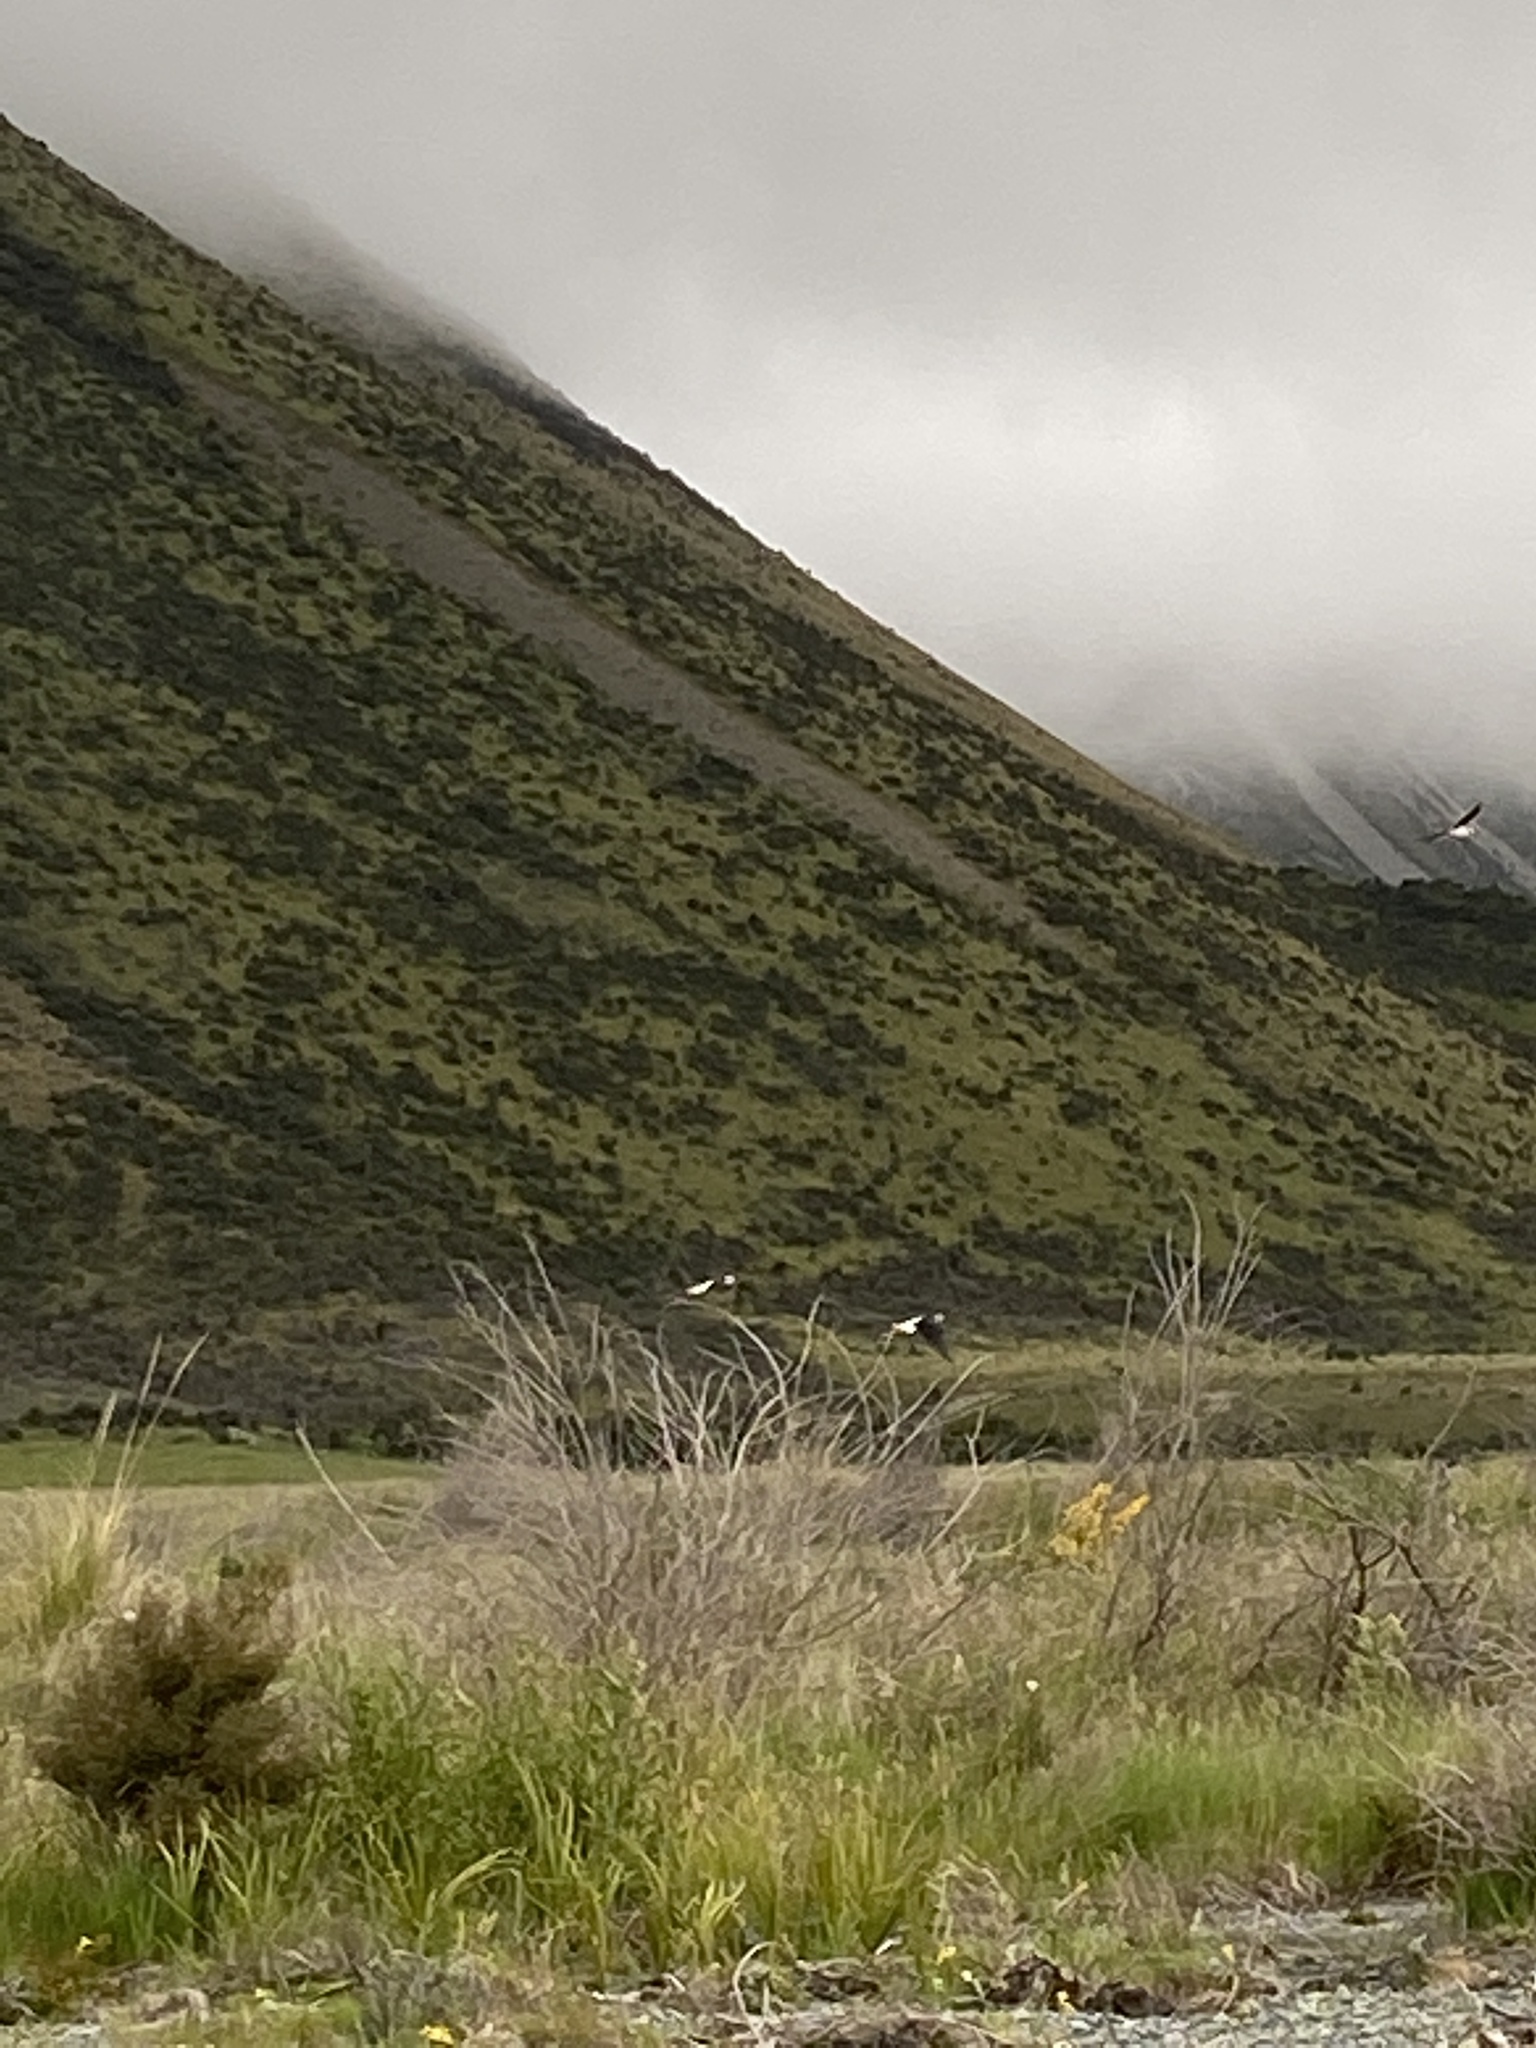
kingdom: Animalia
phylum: Chordata
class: Aves
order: Charadriiformes
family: Recurvirostridae
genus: Himantopus
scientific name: Himantopus leucocephalus
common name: White-headed stilt
